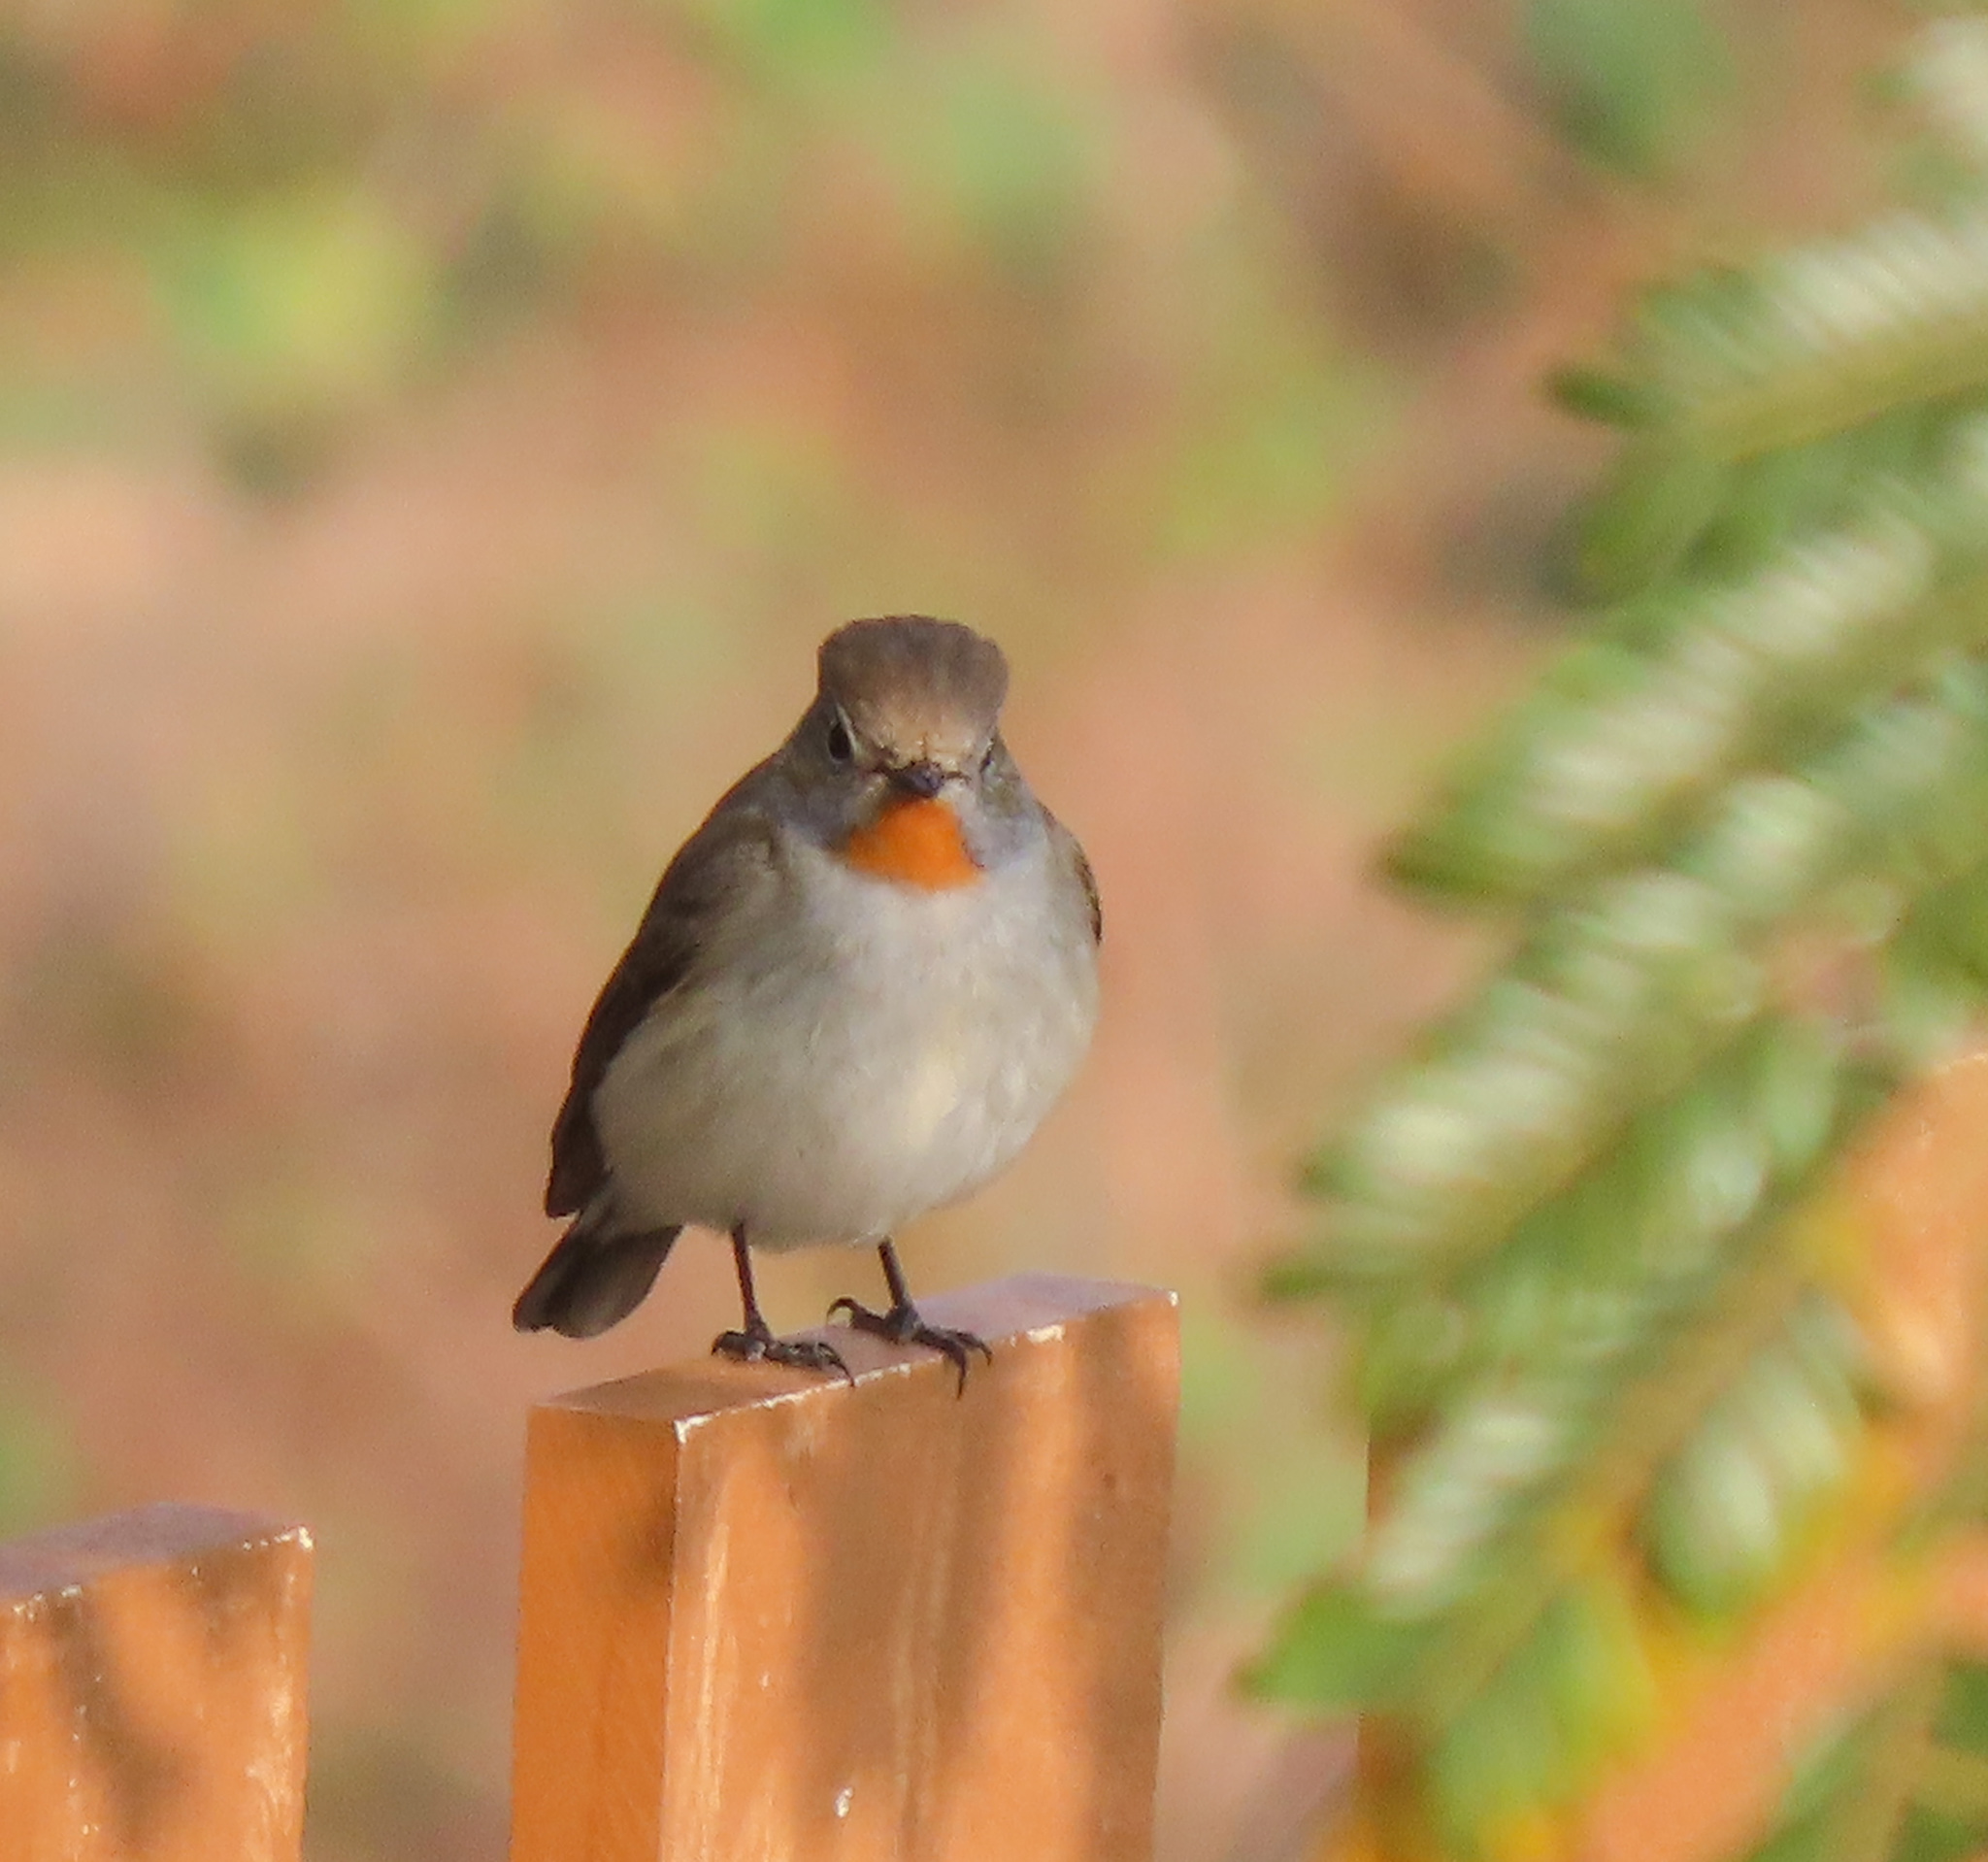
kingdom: Animalia
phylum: Chordata
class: Aves
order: Passeriformes
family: Muscicapidae
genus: Ficedula
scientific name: Ficedula albicilla
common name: Taiga flycatcher
